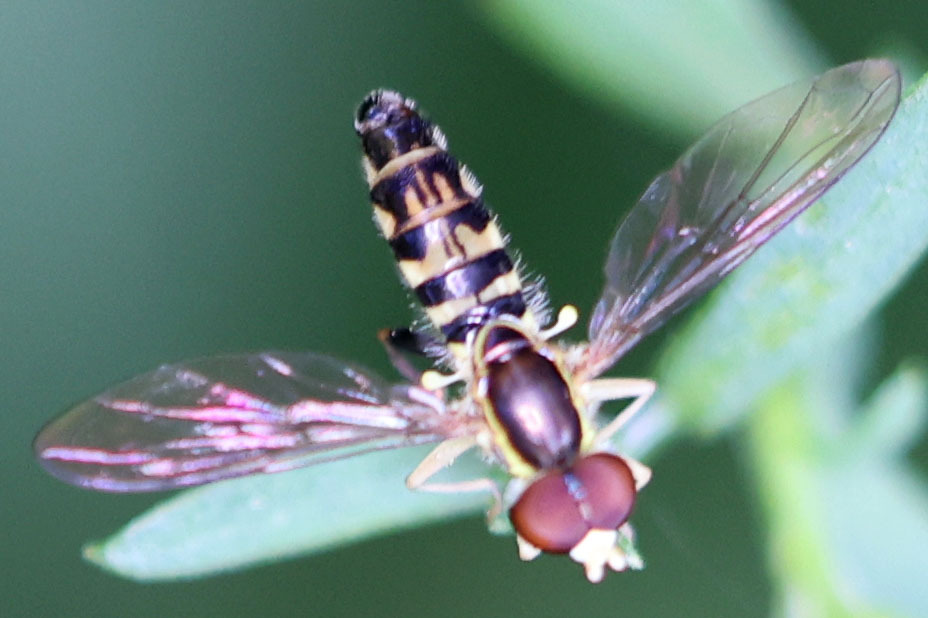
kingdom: Animalia
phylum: Arthropoda
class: Insecta
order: Diptera
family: Syrphidae
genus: Toxomerus
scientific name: Toxomerus geminatus
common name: Eastern calligrapher
